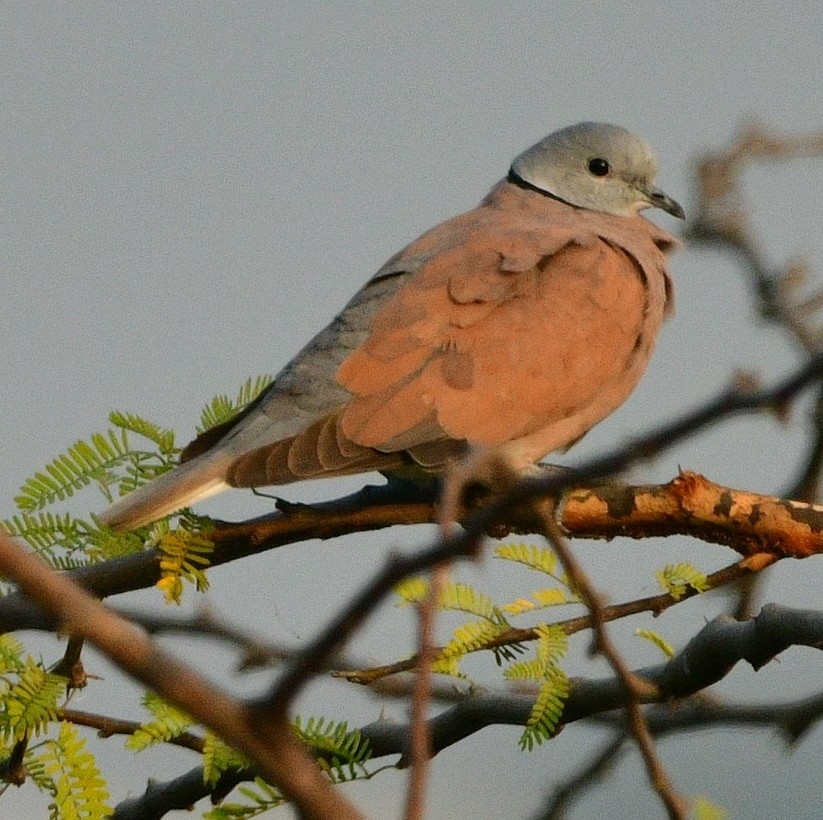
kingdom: Animalia
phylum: Chordata
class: Aves
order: Columbiformes
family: Columbidae
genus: Streptopelia
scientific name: Streptopelia tranquebarica
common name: Red turtle dove
